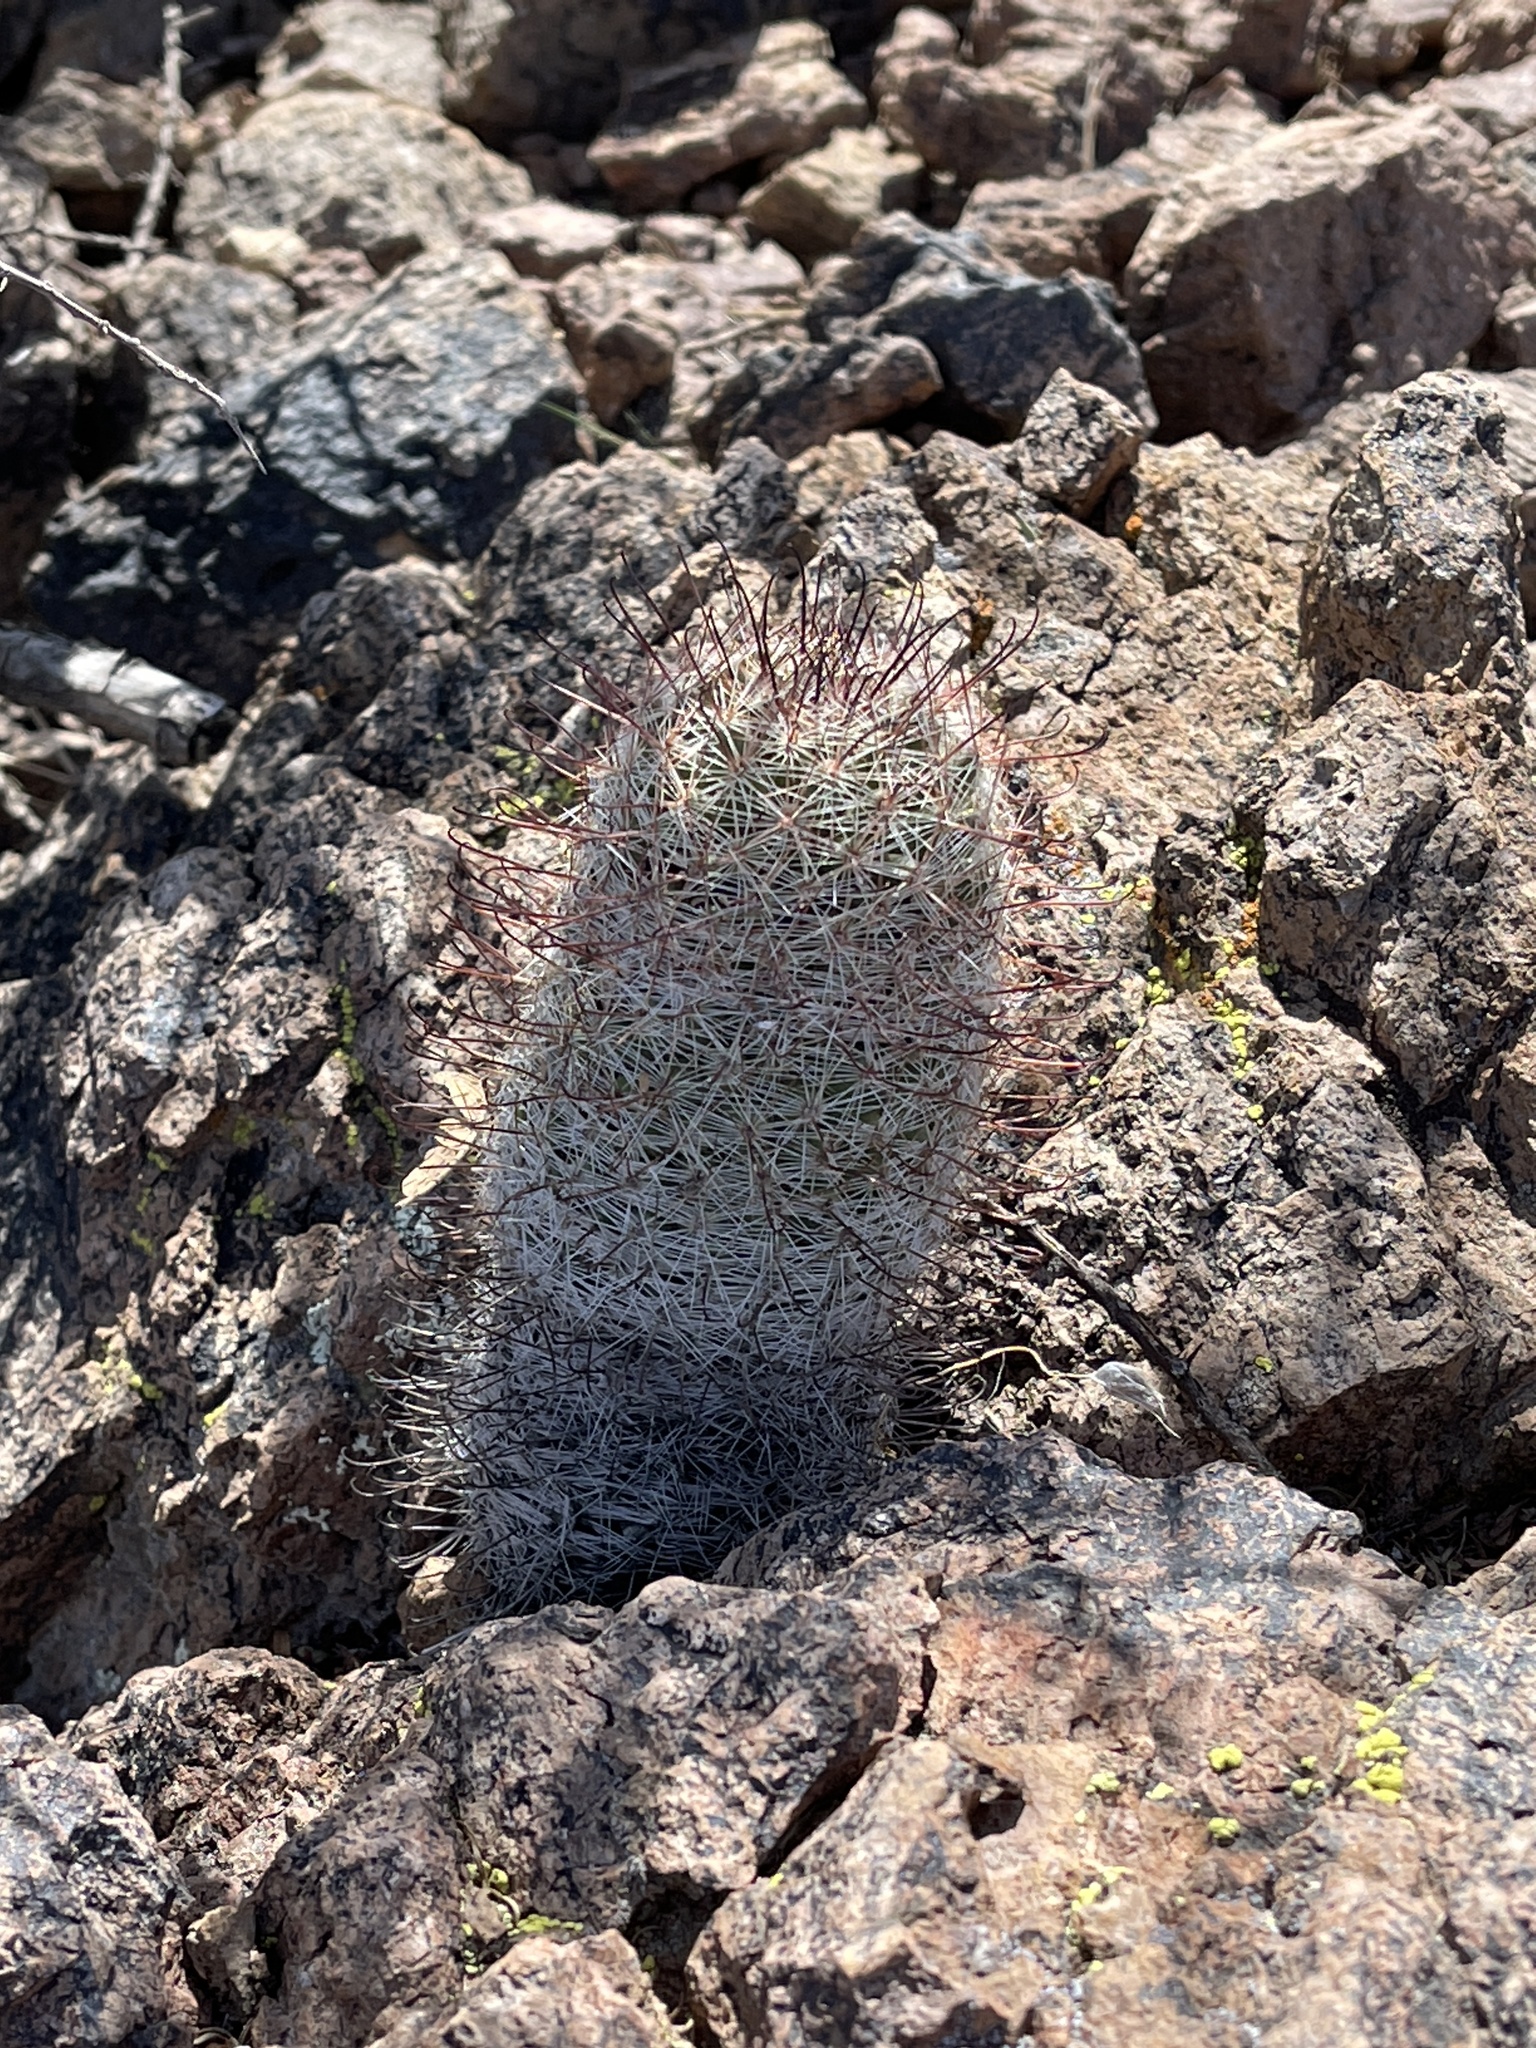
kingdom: Plantae
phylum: Tracheophyta
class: Magnoliopsida
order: Caryophyllales
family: Cactaceae
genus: Cochemiea
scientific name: Cochemiea grahamii
